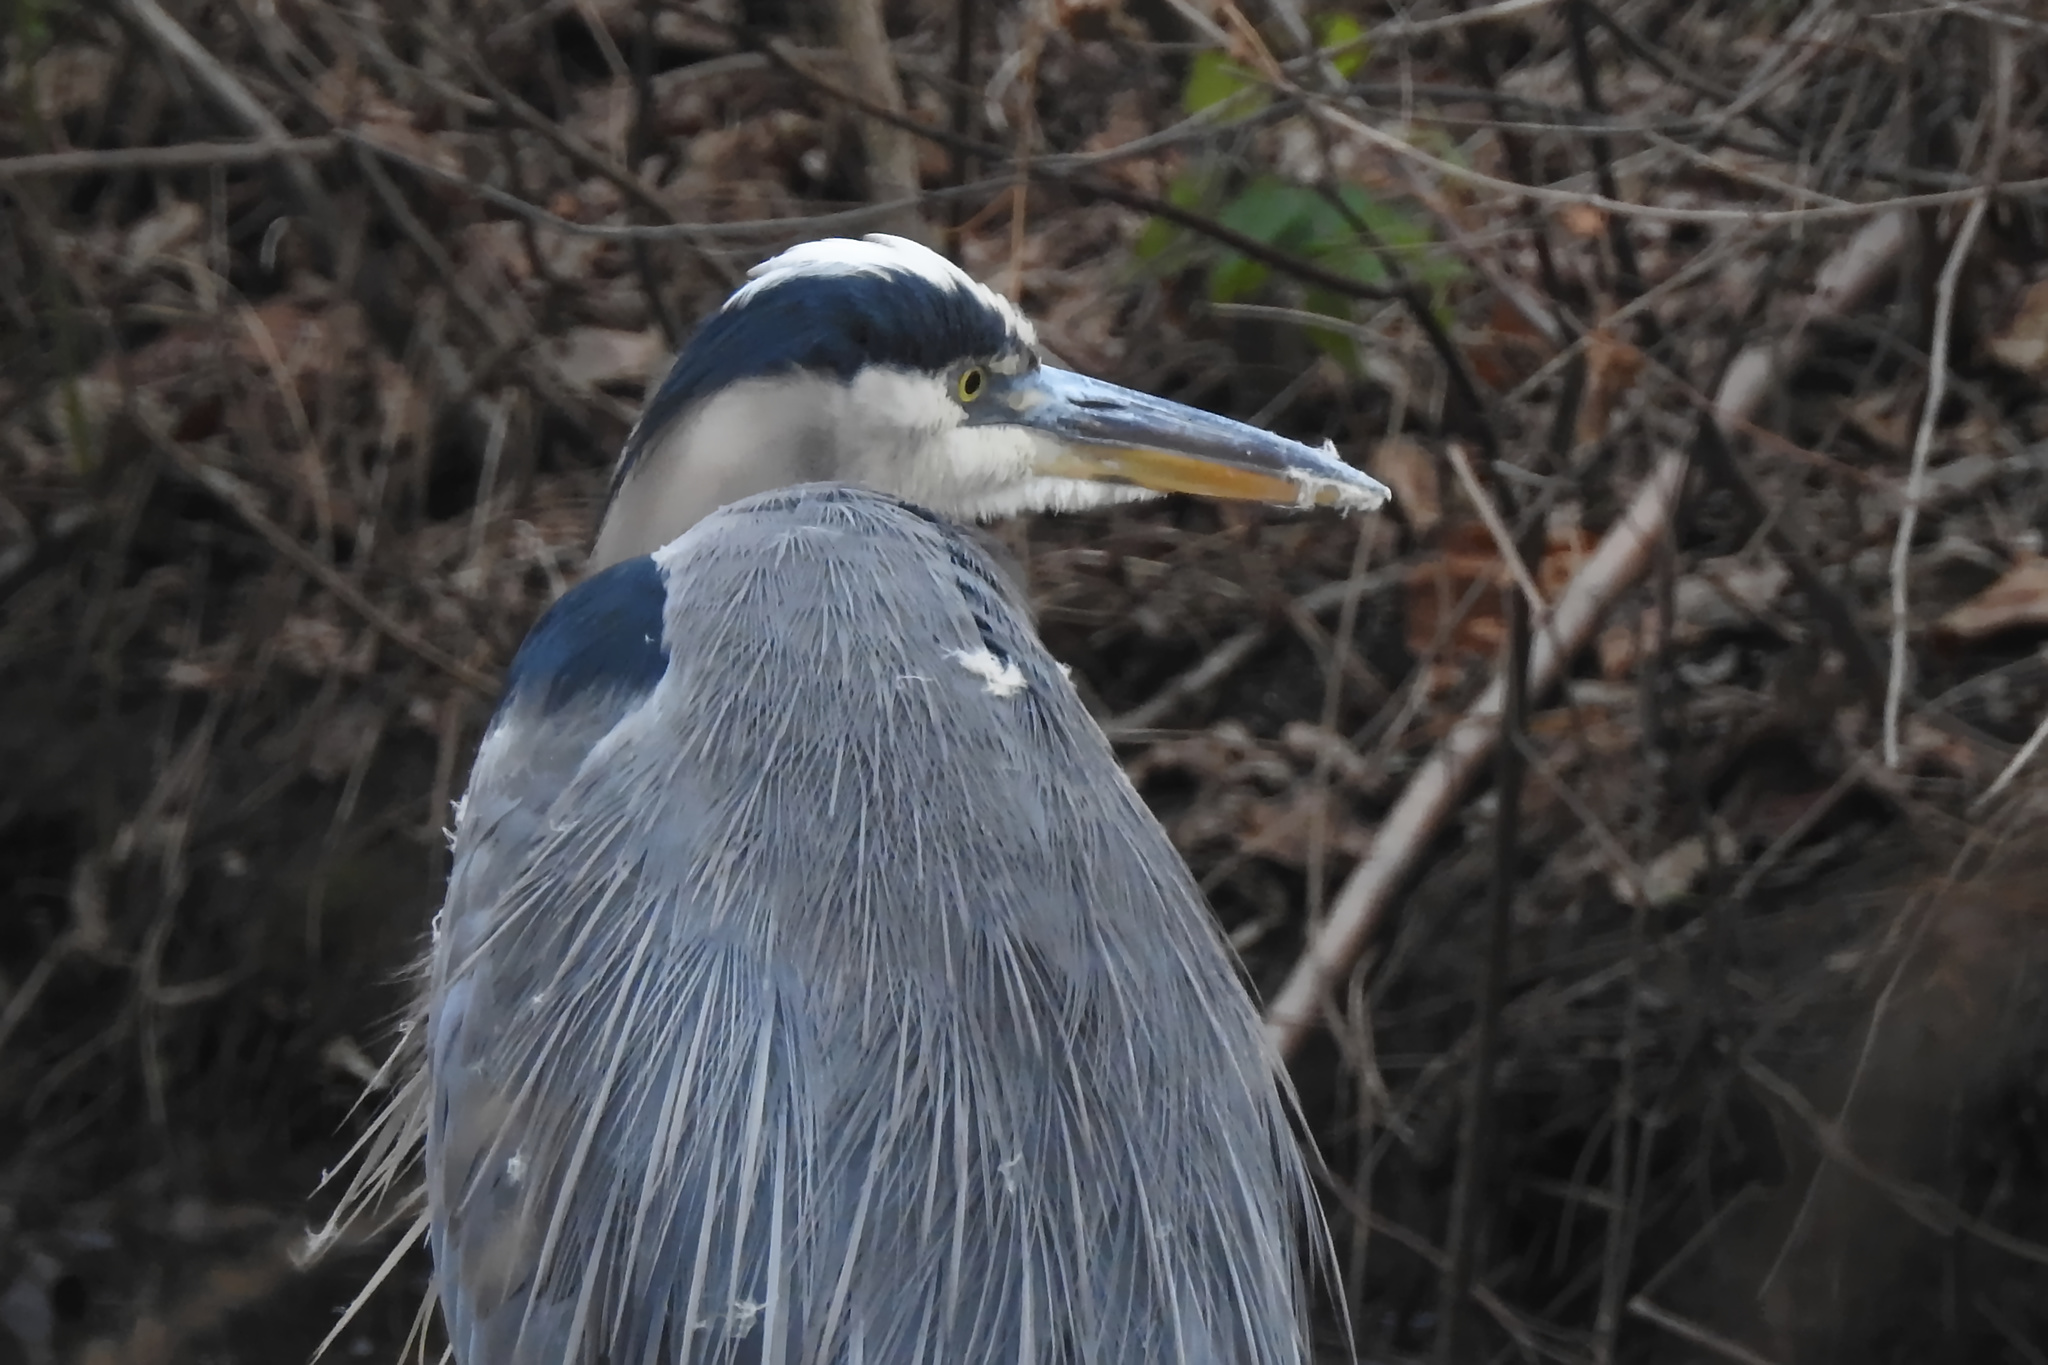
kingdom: Animalia
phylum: Chordata
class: Aves
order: Pelecaniformes
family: Ardeidae
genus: Ardea
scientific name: Ardea herodias
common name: Great blue heron
